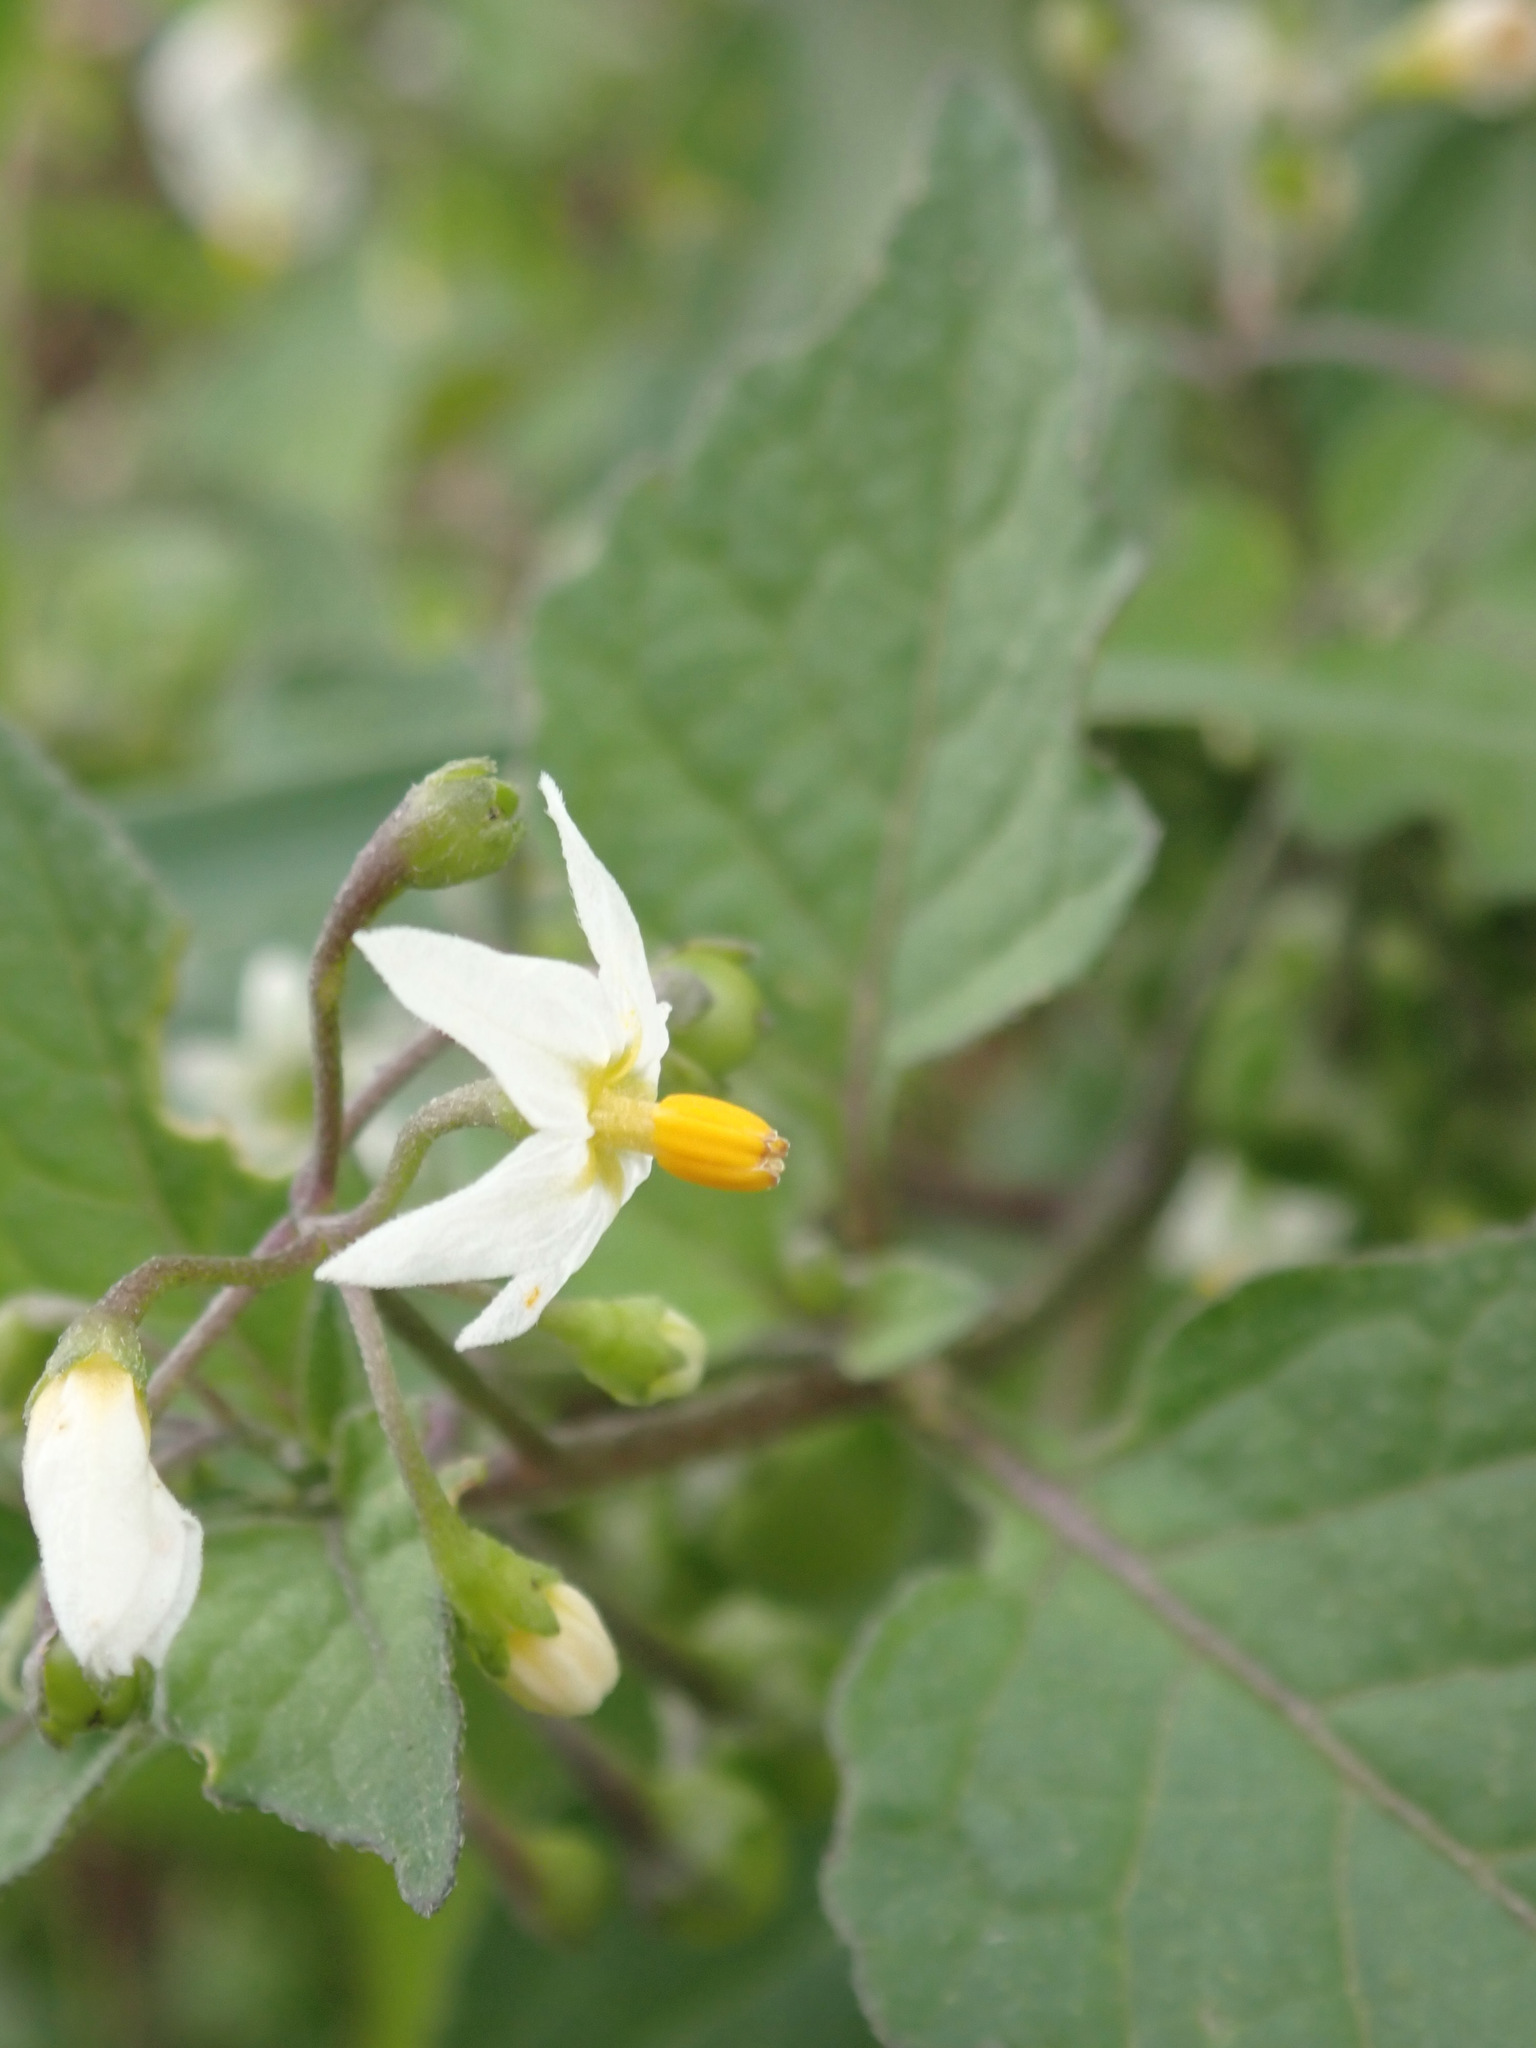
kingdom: Plantae
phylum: Tracheophyta
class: Magnoliopsida
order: Solanales
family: Solanaceae
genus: Solanum
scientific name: Solanum nigrum
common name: Black nightshade
